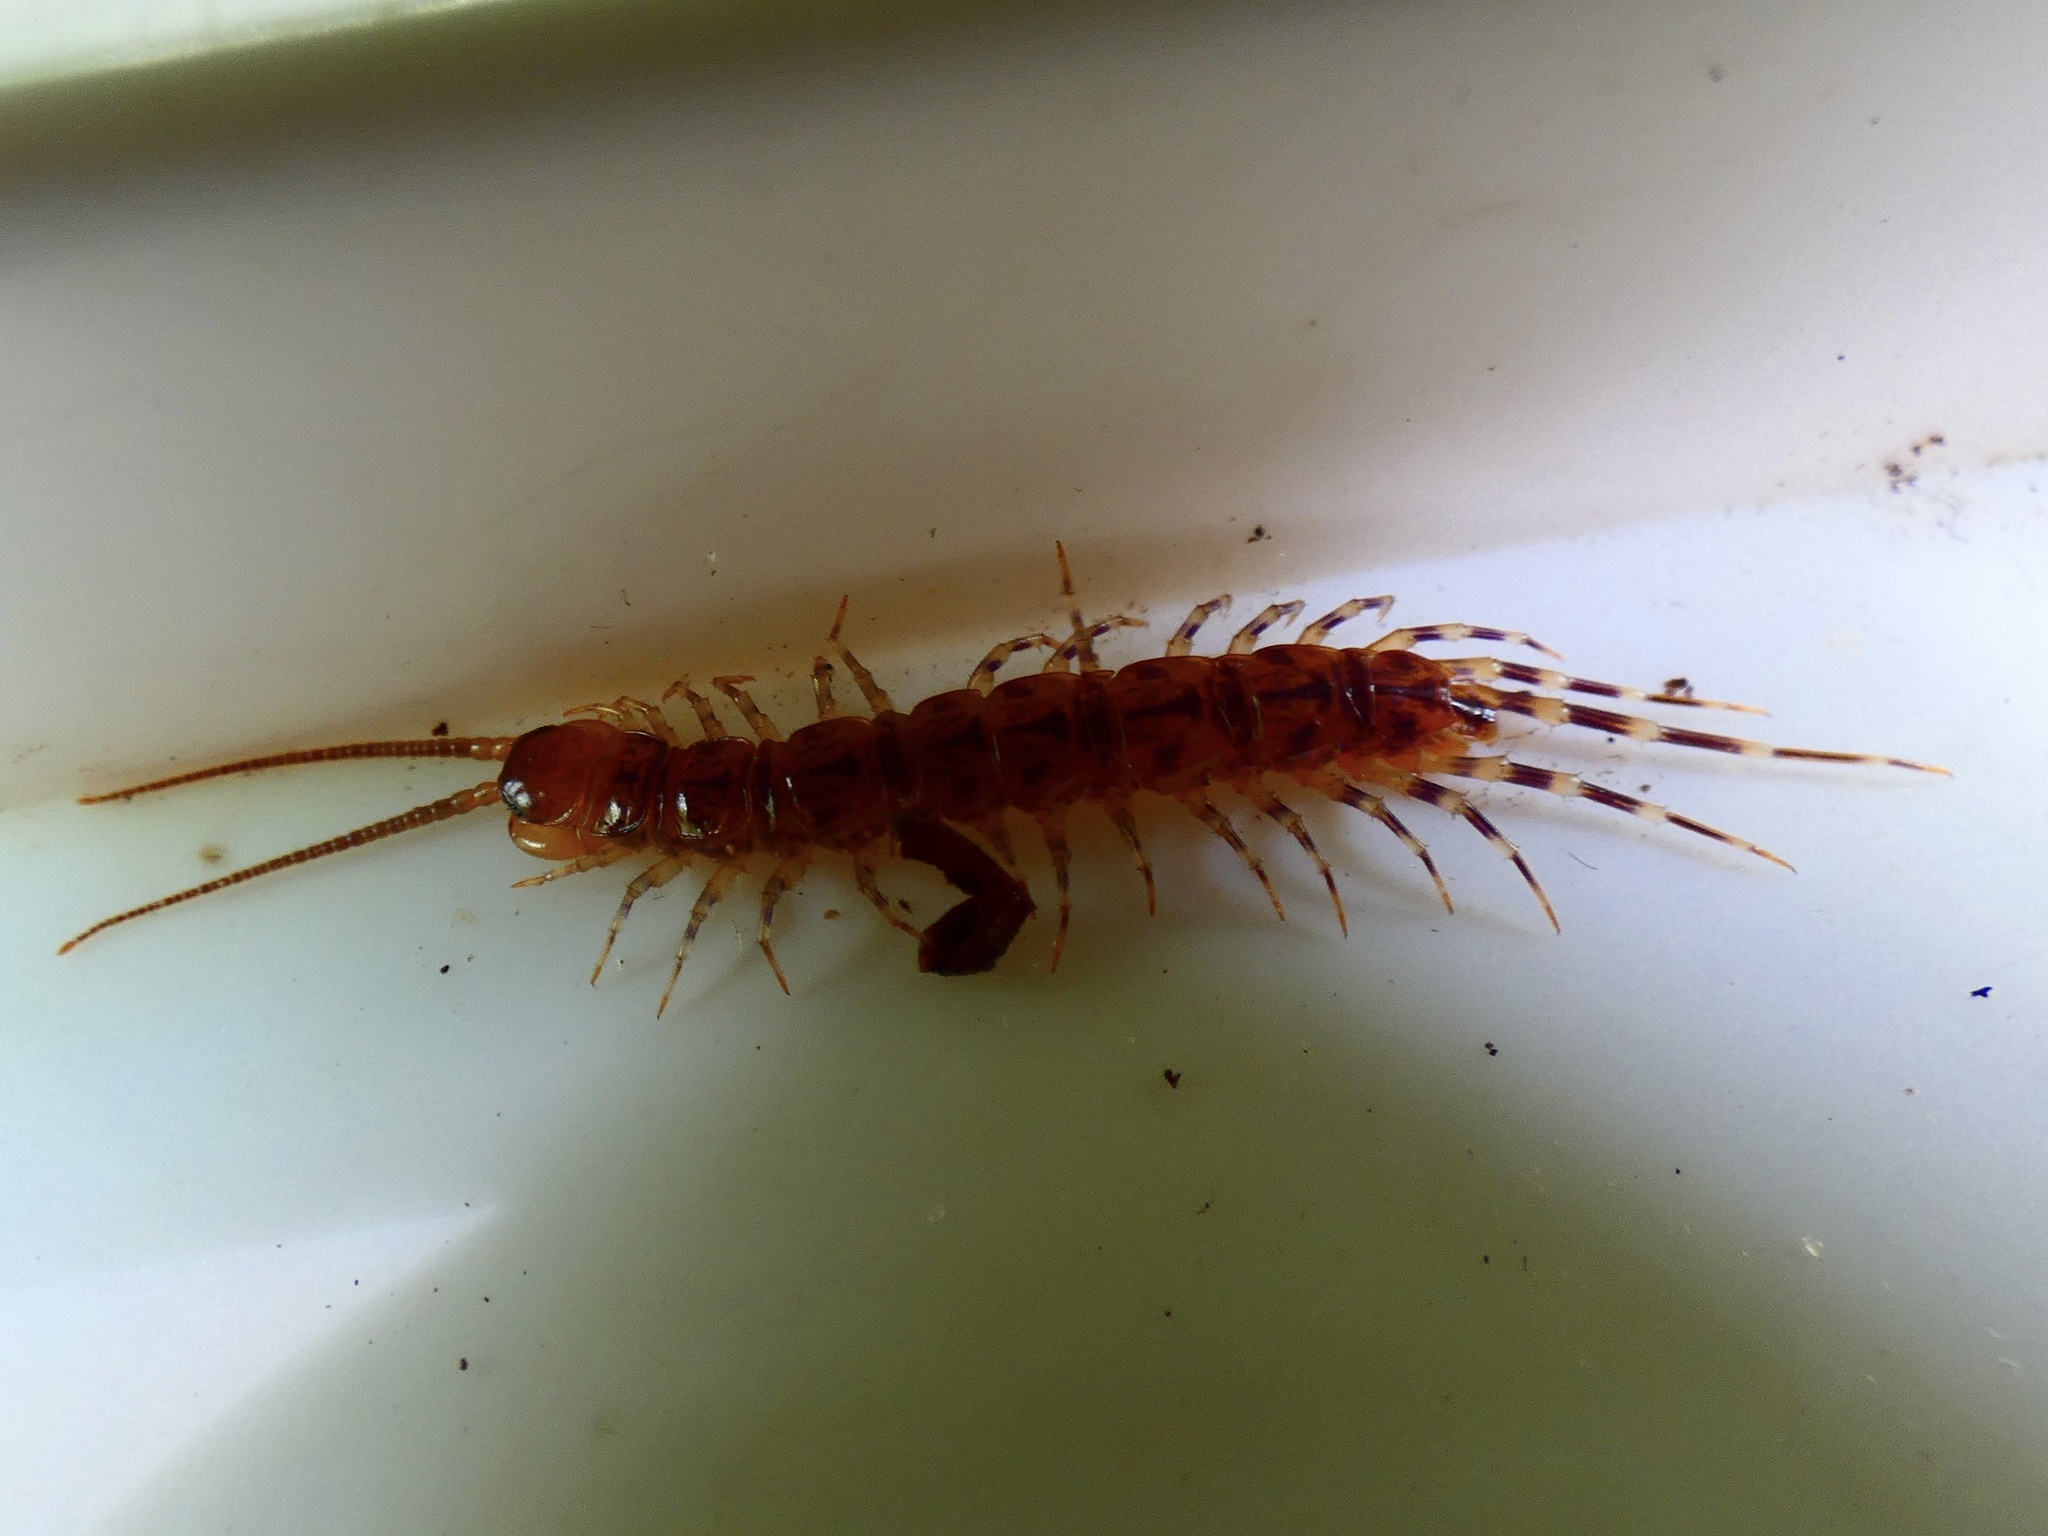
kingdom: Animalia
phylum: Arthropoda
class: Chilopoda
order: Lithobiomorpha
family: Lithobiidae
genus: Lithobius
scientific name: Lithobius variegatus
